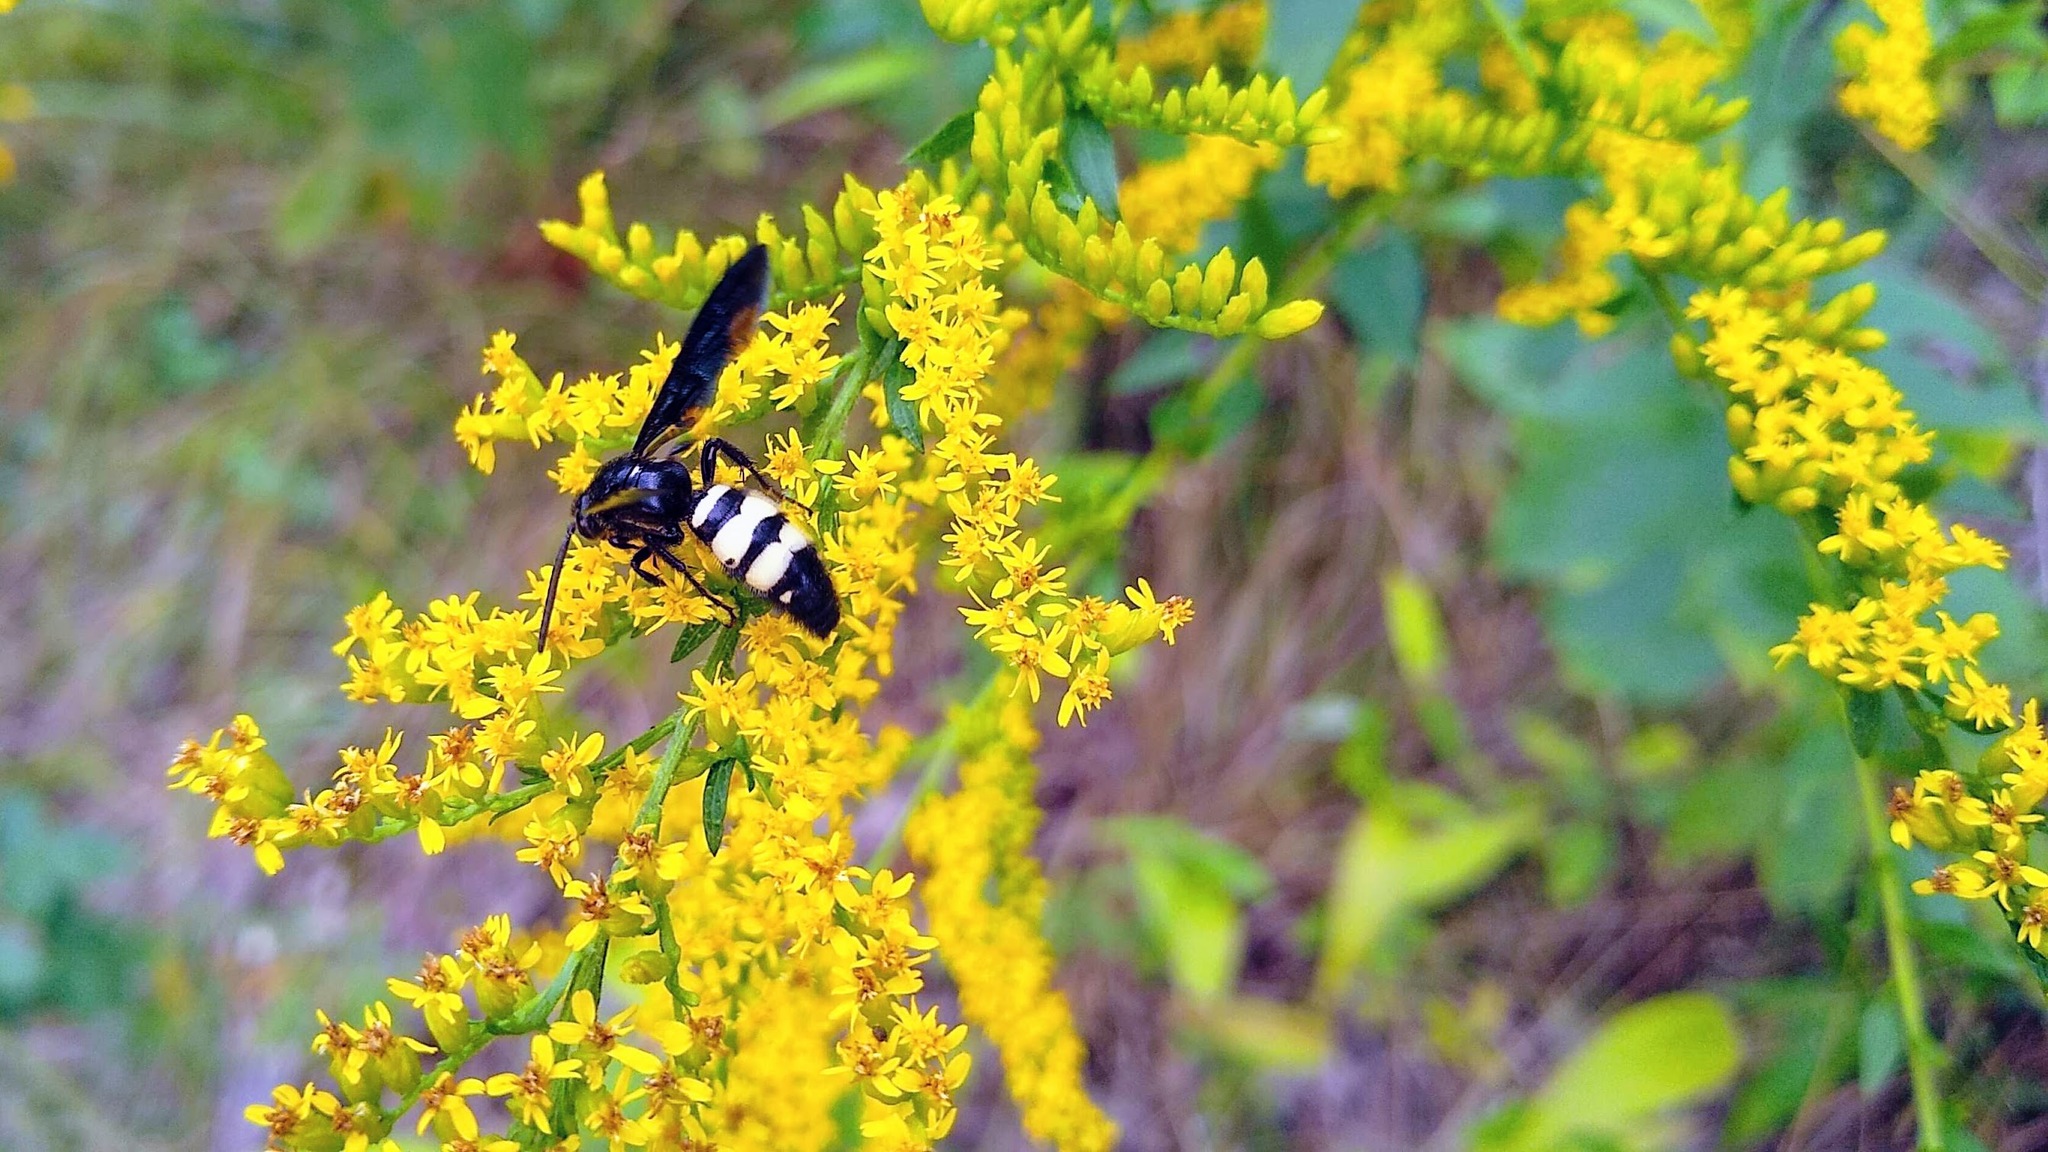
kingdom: Animalia
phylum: Arthropoda
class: Insecta
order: Hymenoptera
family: Scoliidae
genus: Scolia
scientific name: Scolia bicincta
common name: Double-banded scoliid wasp
